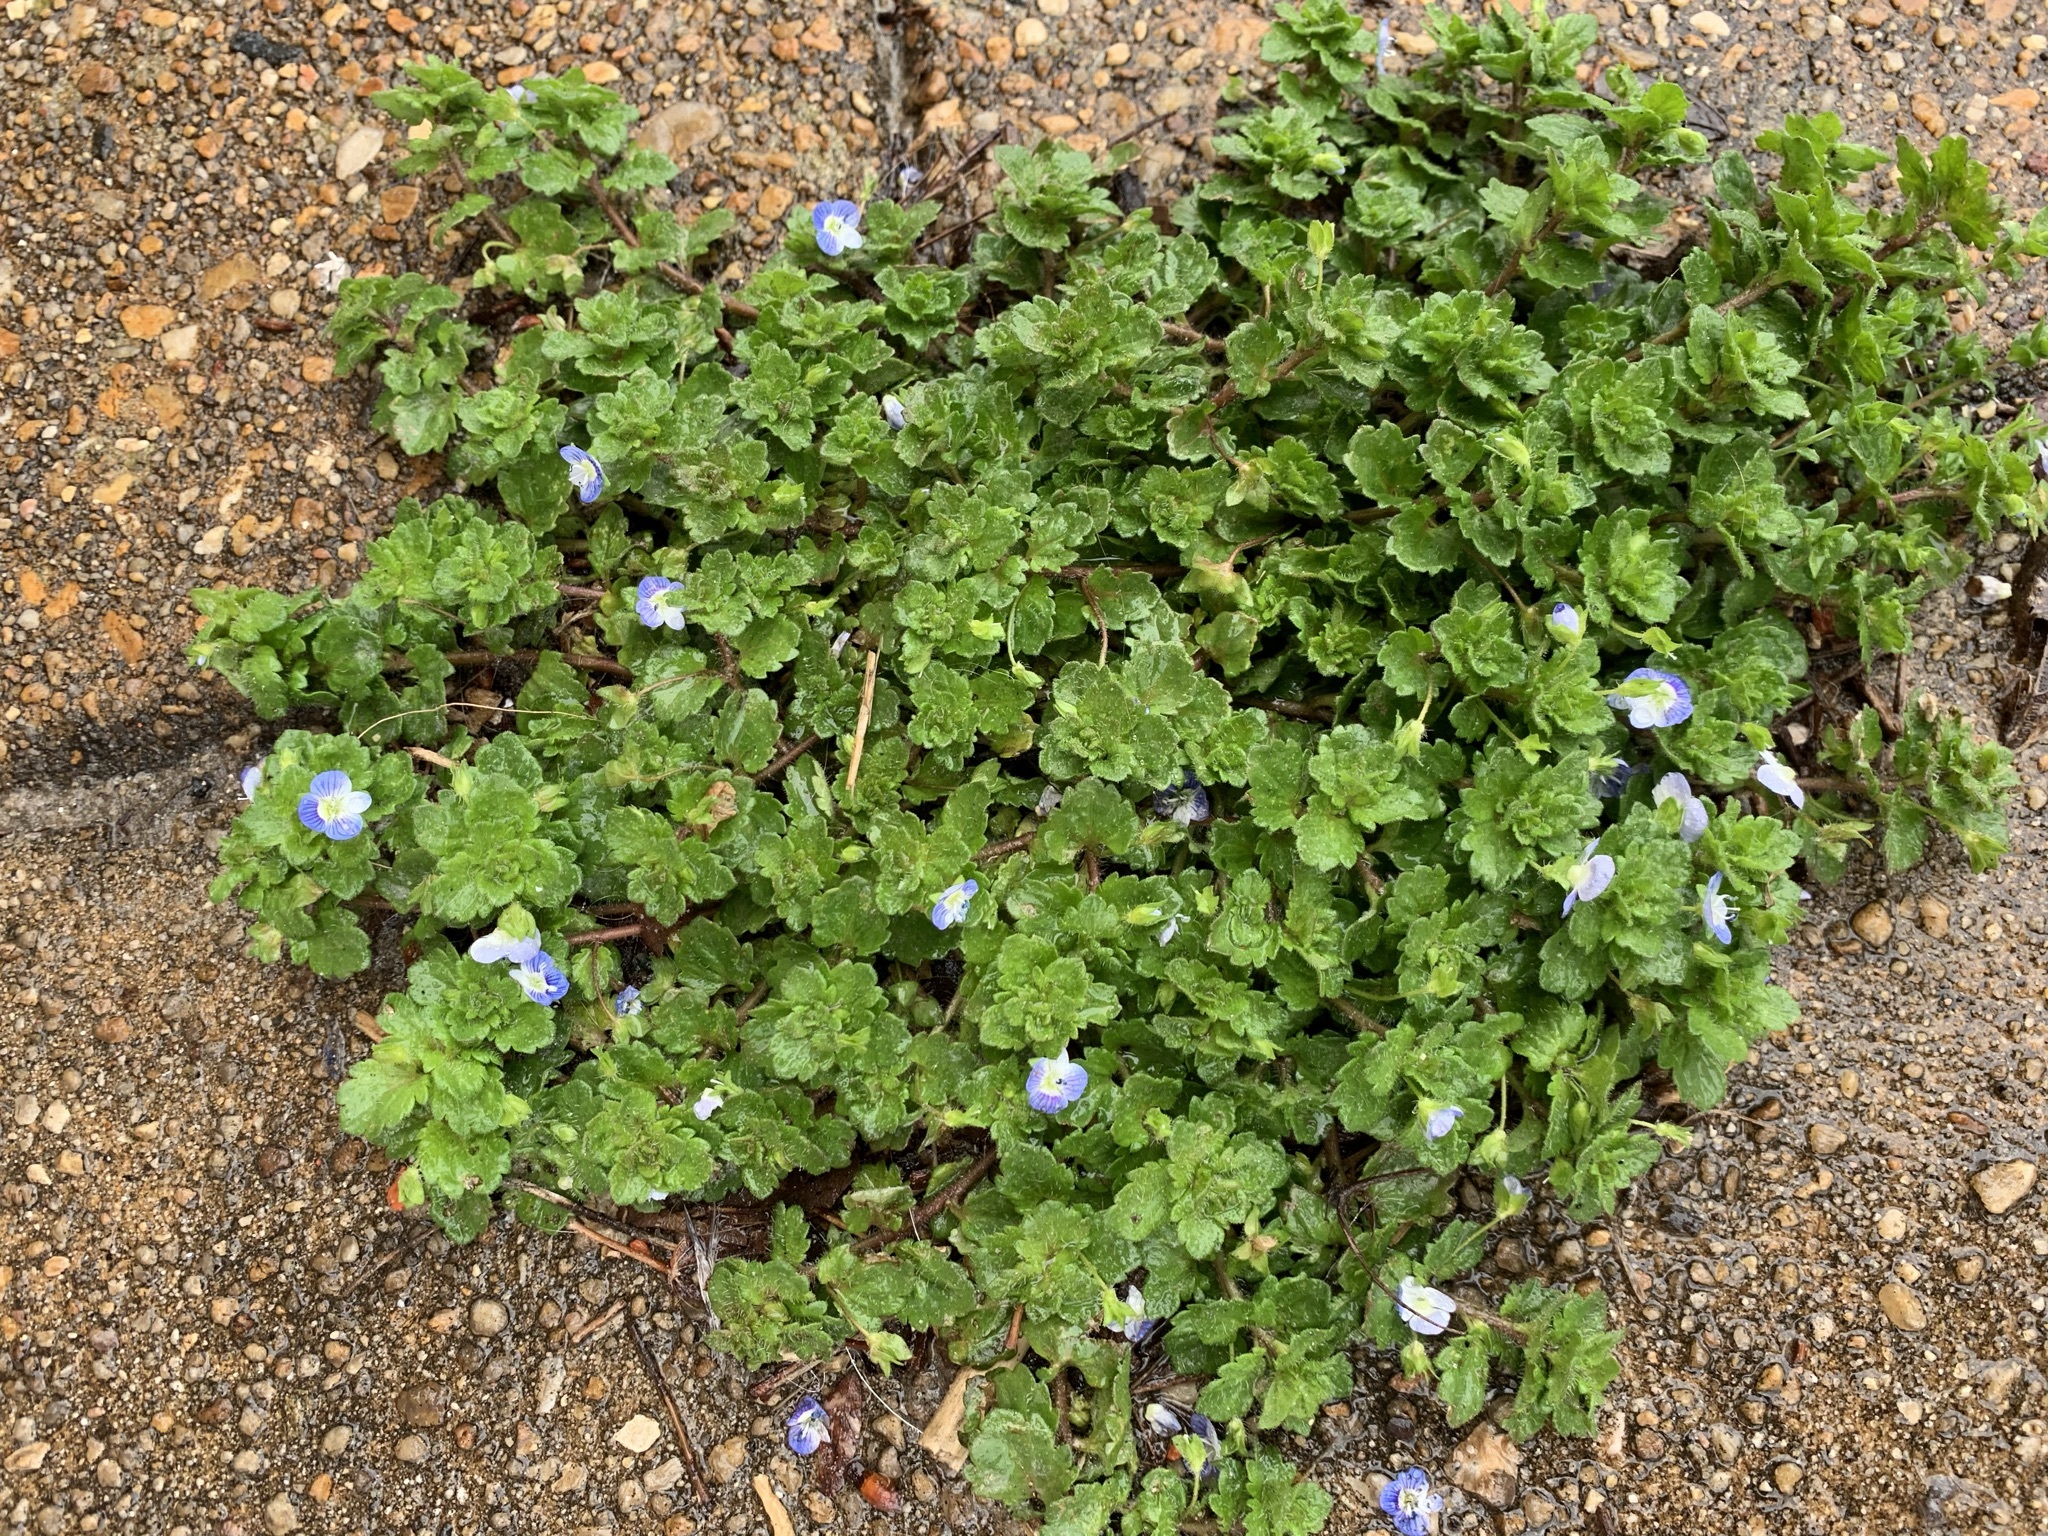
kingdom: Plantae
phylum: Tracheophyta
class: Magnoliopsida
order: Lamiales
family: Plantaginaceae
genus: Veronica
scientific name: Veronica persica
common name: Common field-speedwell
